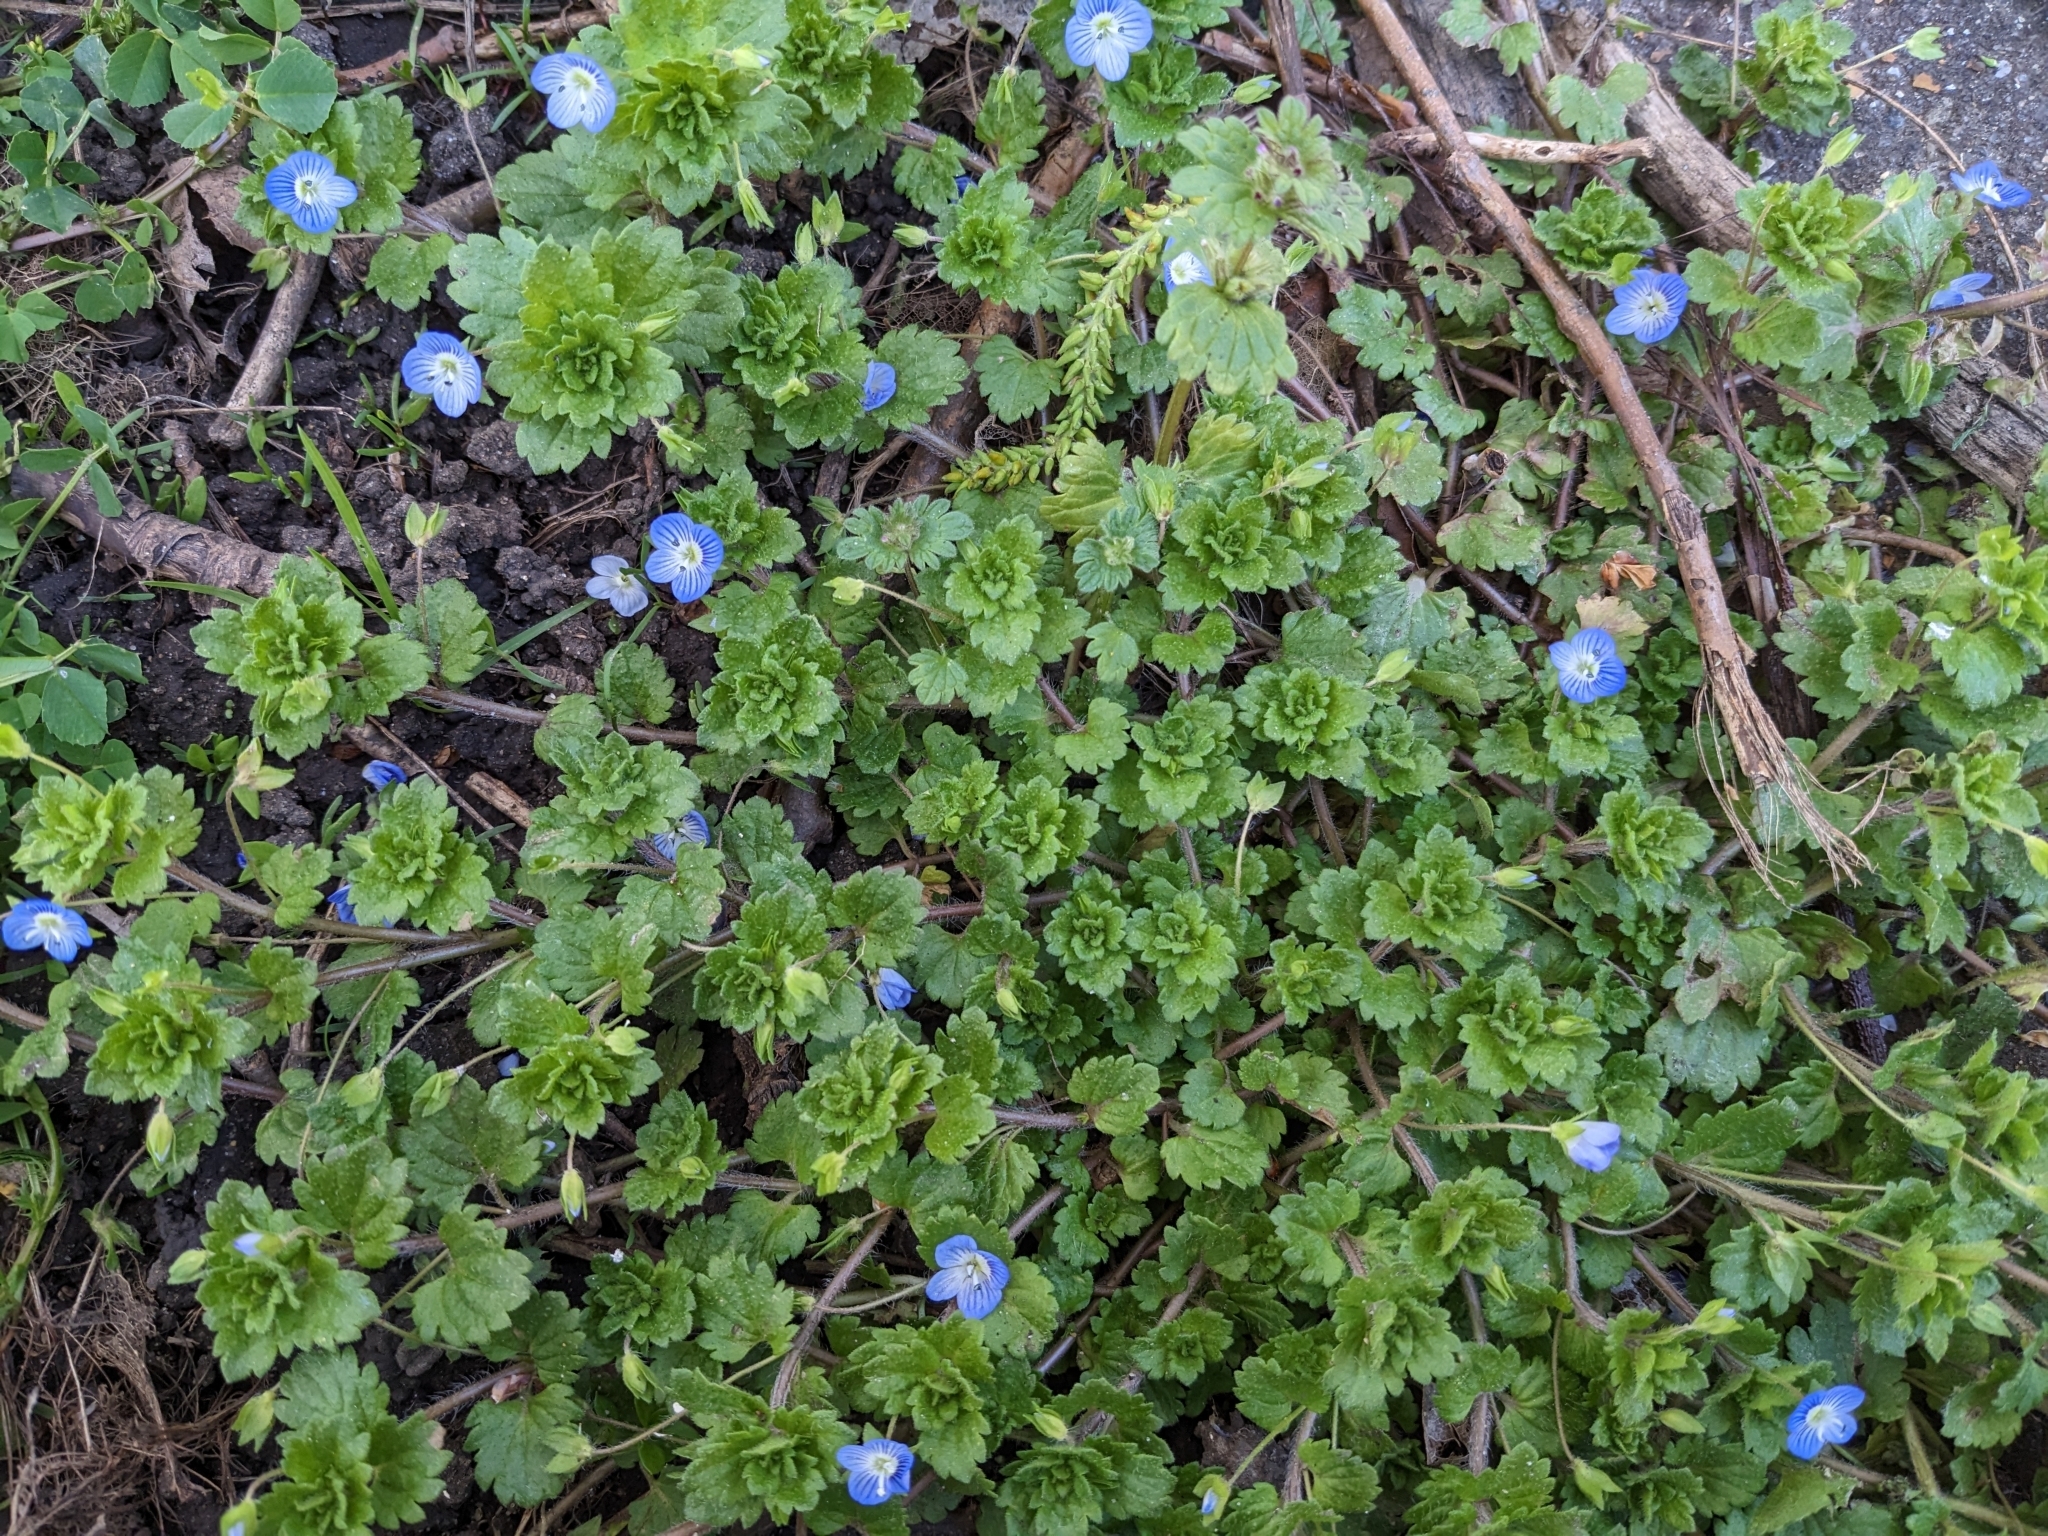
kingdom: Plantae
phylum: Tracheophyta
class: Magnoliopsida
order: Lamiales
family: Plantaginaceae
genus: Veronica
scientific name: Veronica persica
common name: Common field-speedwell
